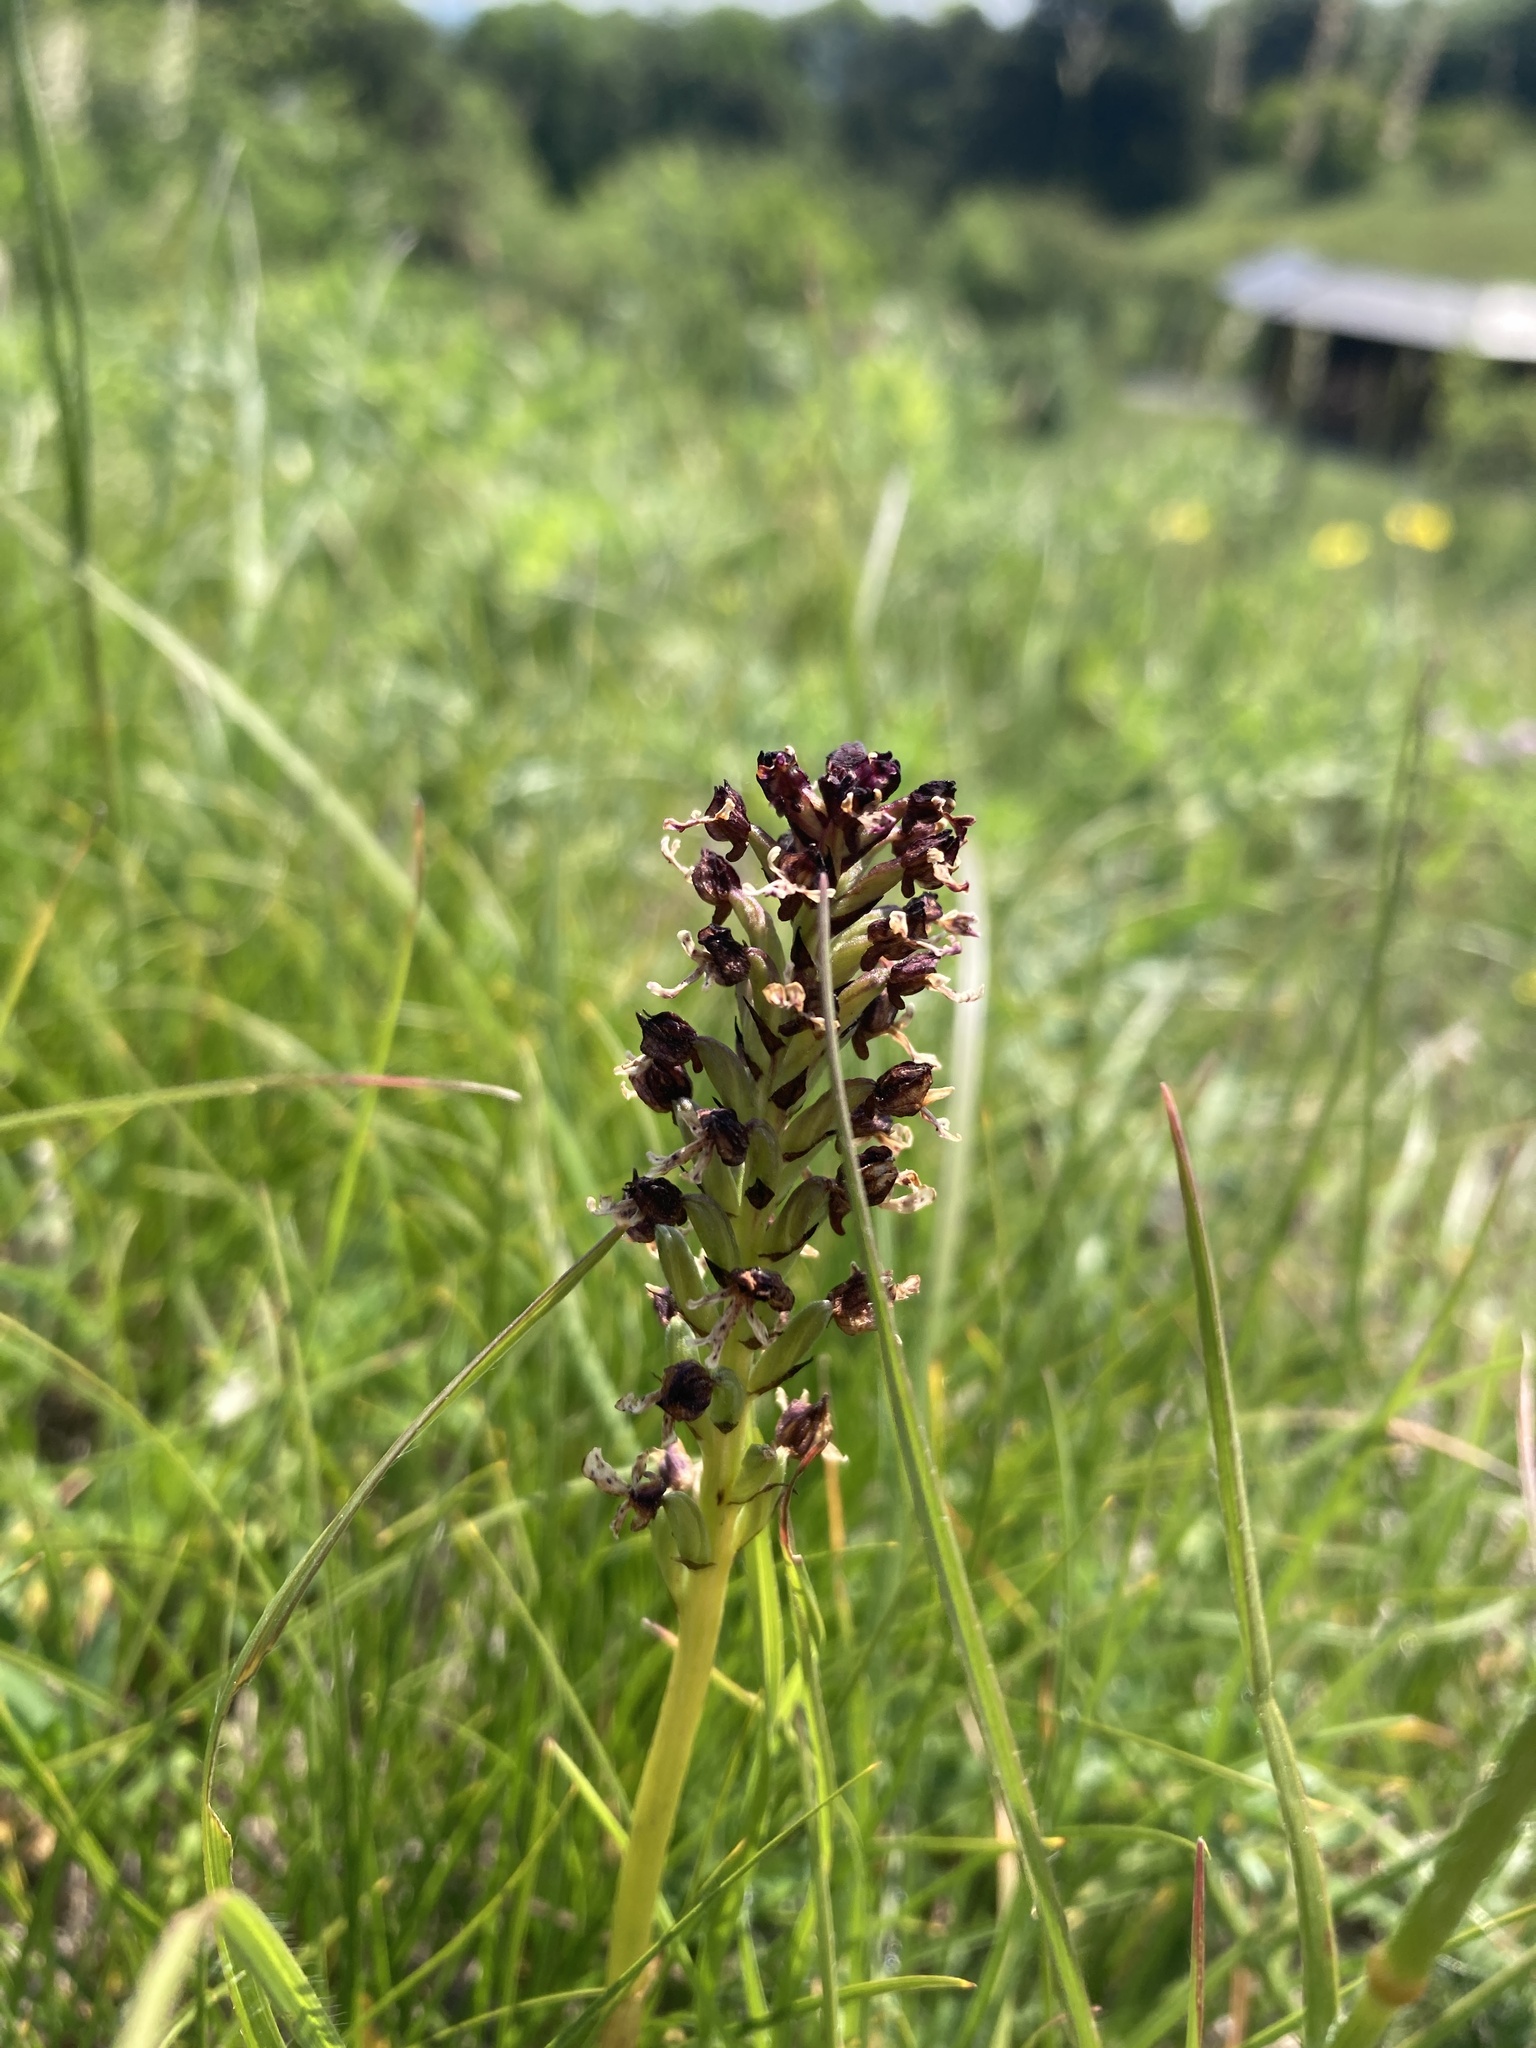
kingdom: Plantae
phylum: Tracheophyta
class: Liliopsida
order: Asparagales
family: Orchidaceae
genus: Neotinea
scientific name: Neotinea ustulata
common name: Burnt orchid
